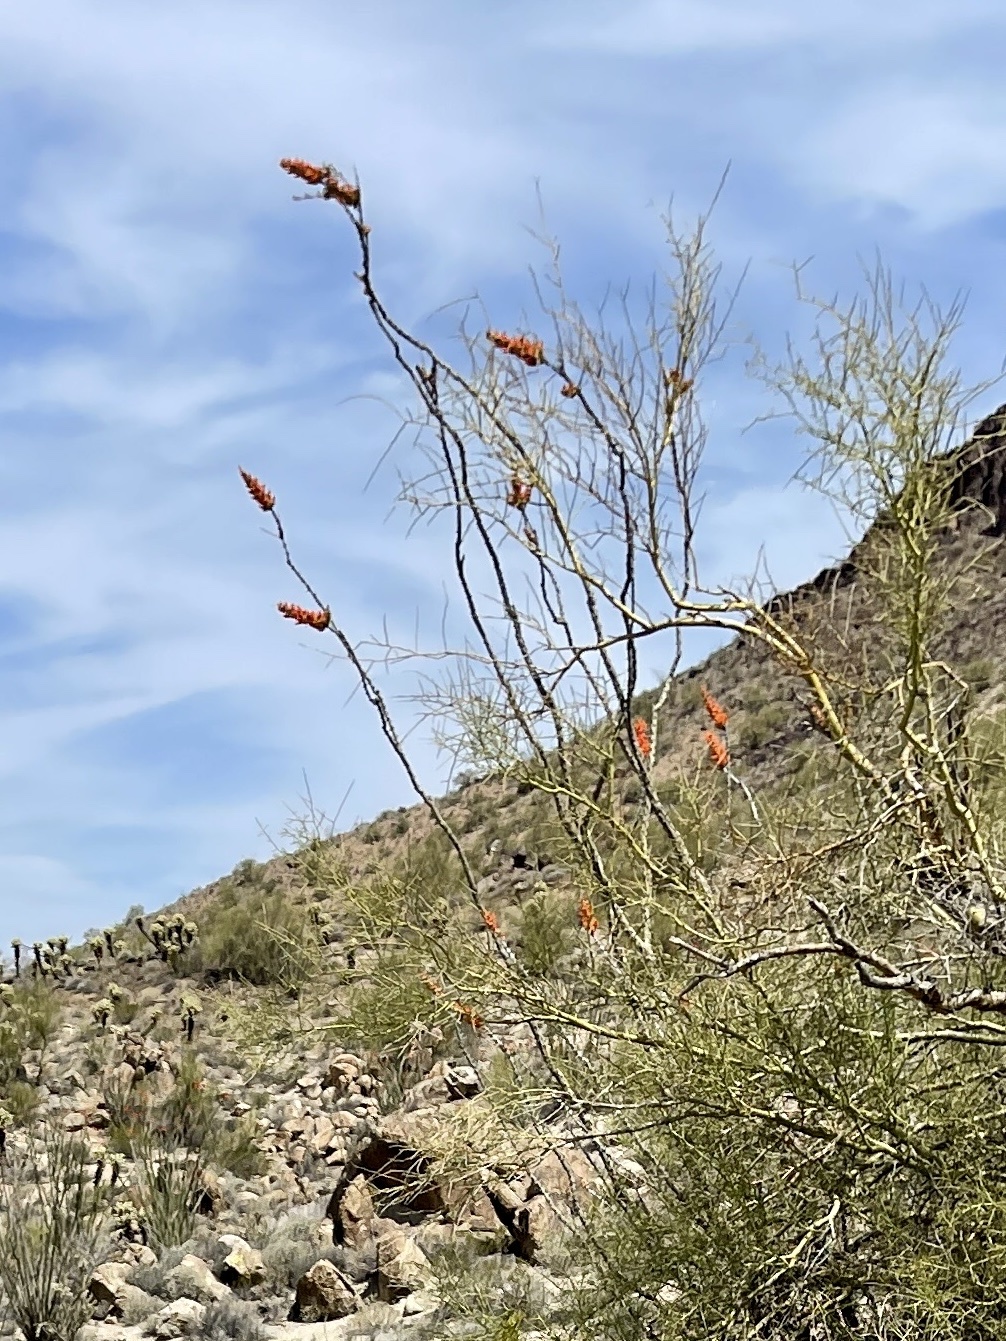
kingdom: Plantae
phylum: Tracheophyta
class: Magnoliopsida
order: Ericales
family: Fouquieriaceae
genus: Fouquieria
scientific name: Fouquieria splendens
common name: Vine-cactus
